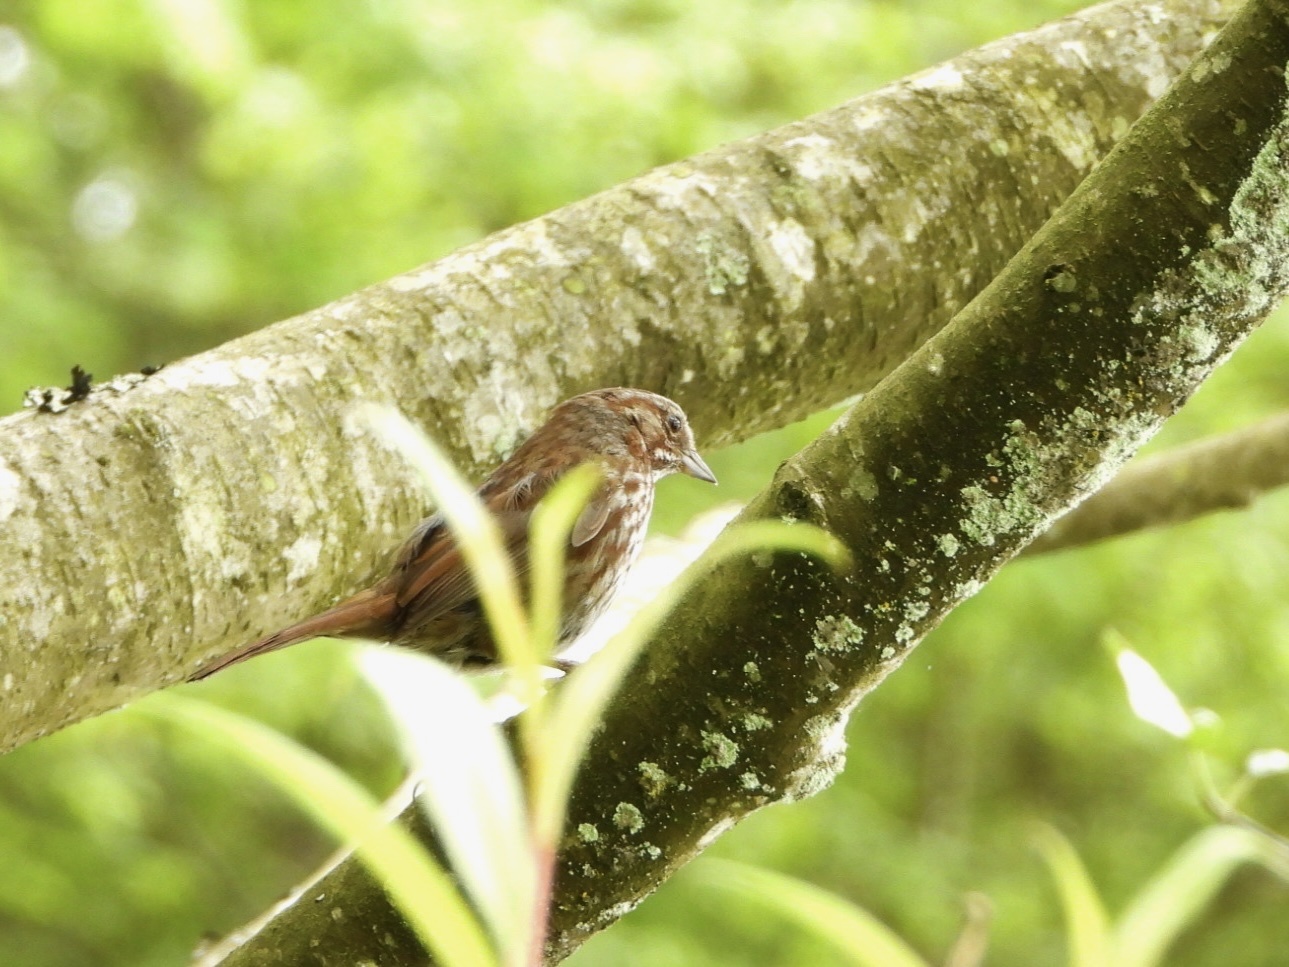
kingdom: Animalia
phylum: Chordata
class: Aves
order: Passeriformes
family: Passerellidae
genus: Melospiza
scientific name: Melospiza melodia
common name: Song sparrow
